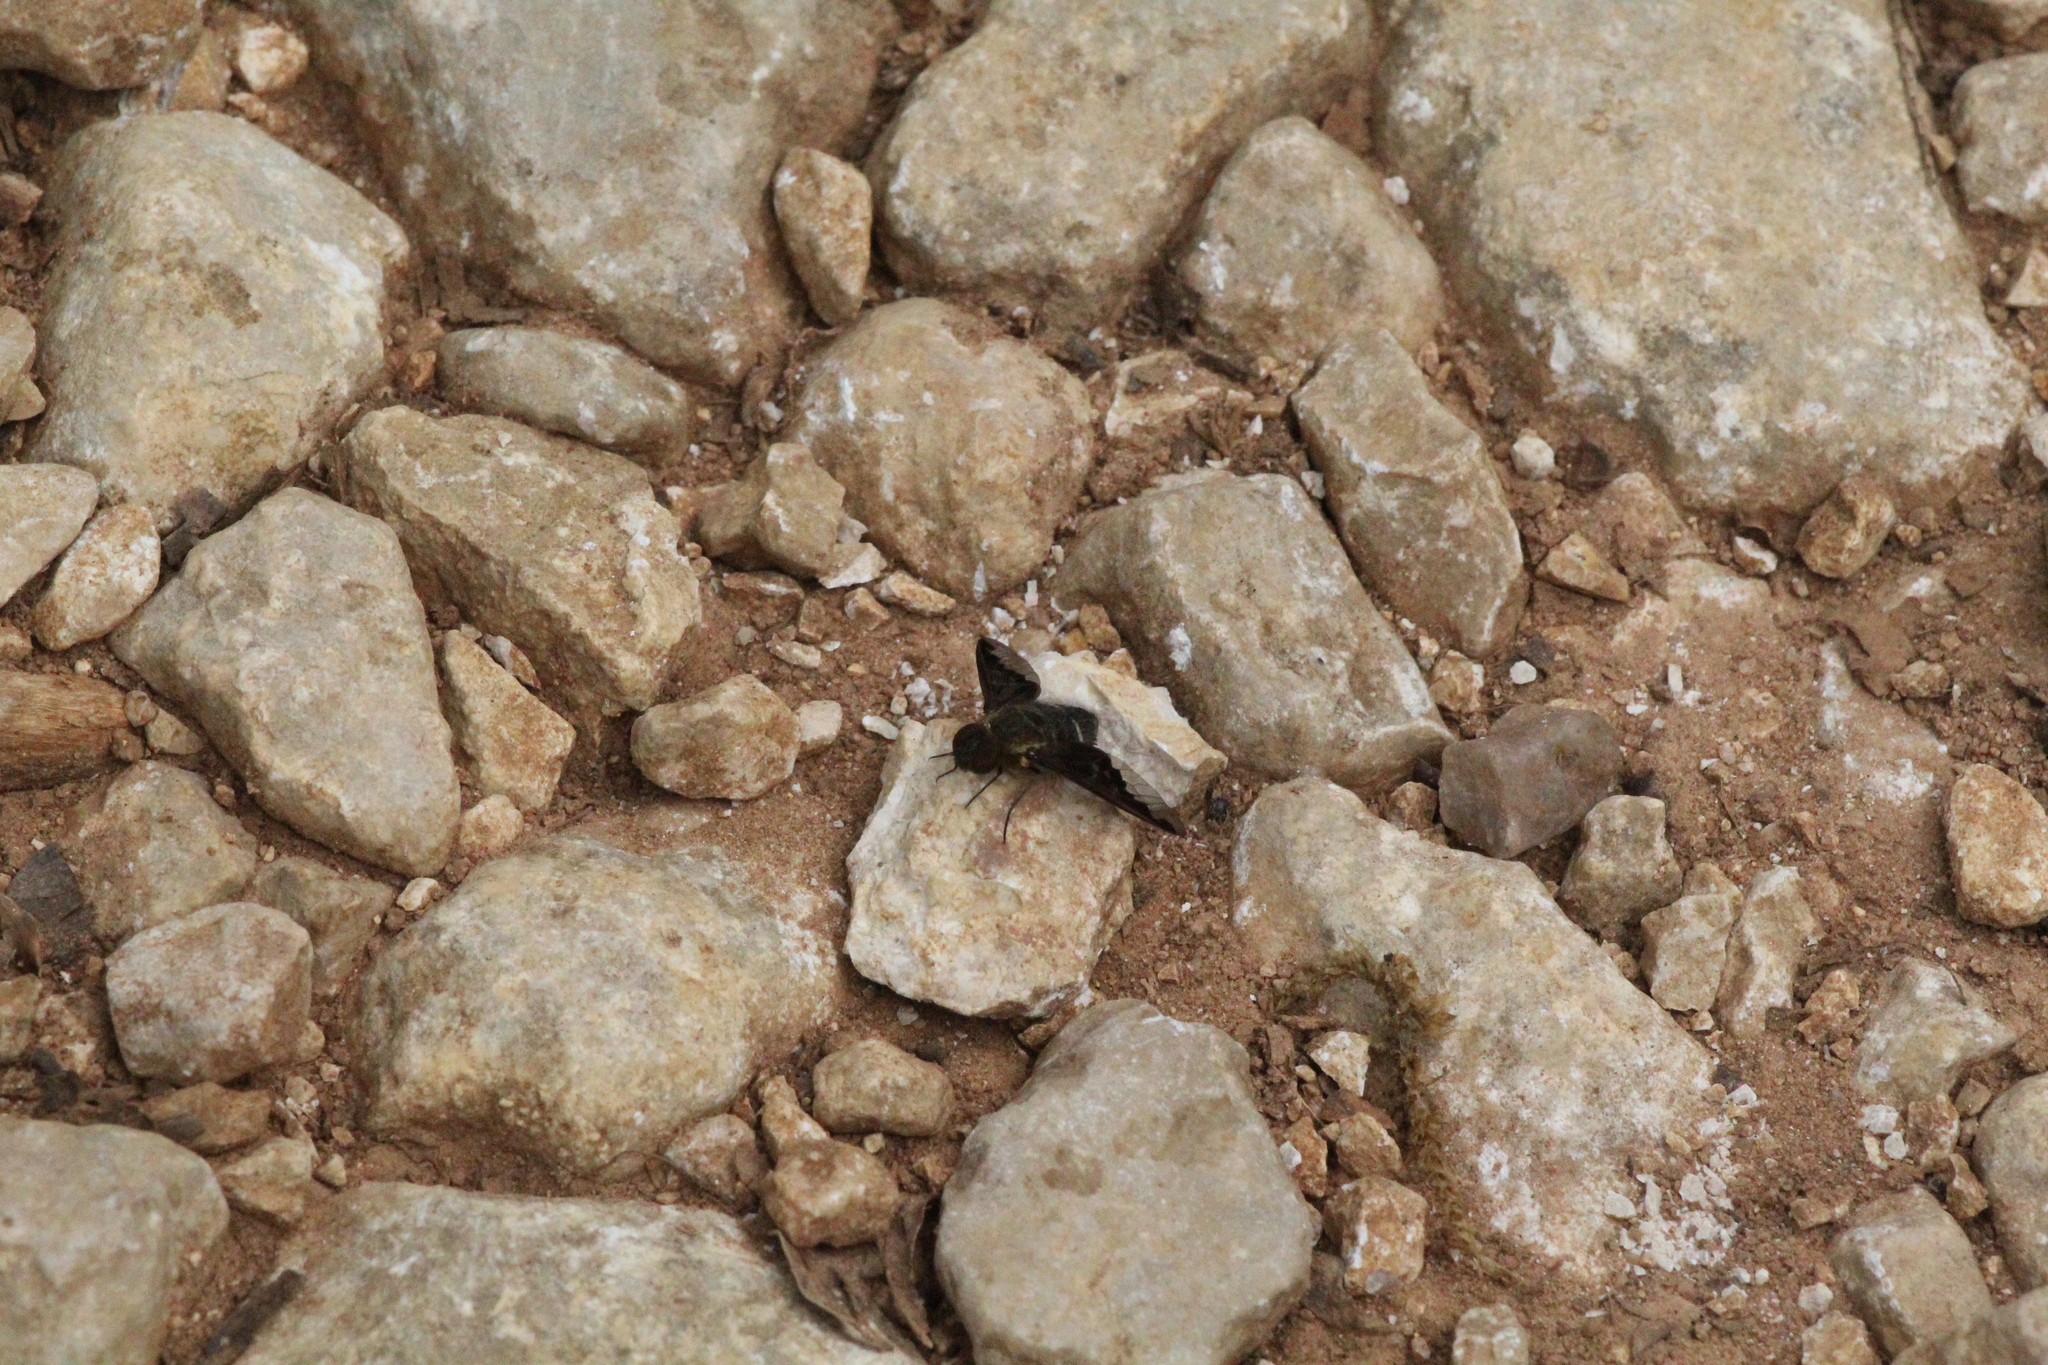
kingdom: Animalia
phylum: Arthropoda
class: Insecta
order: Diptera
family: Bombyliidae
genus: Hemipenthes
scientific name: Hemipenthes velutina
